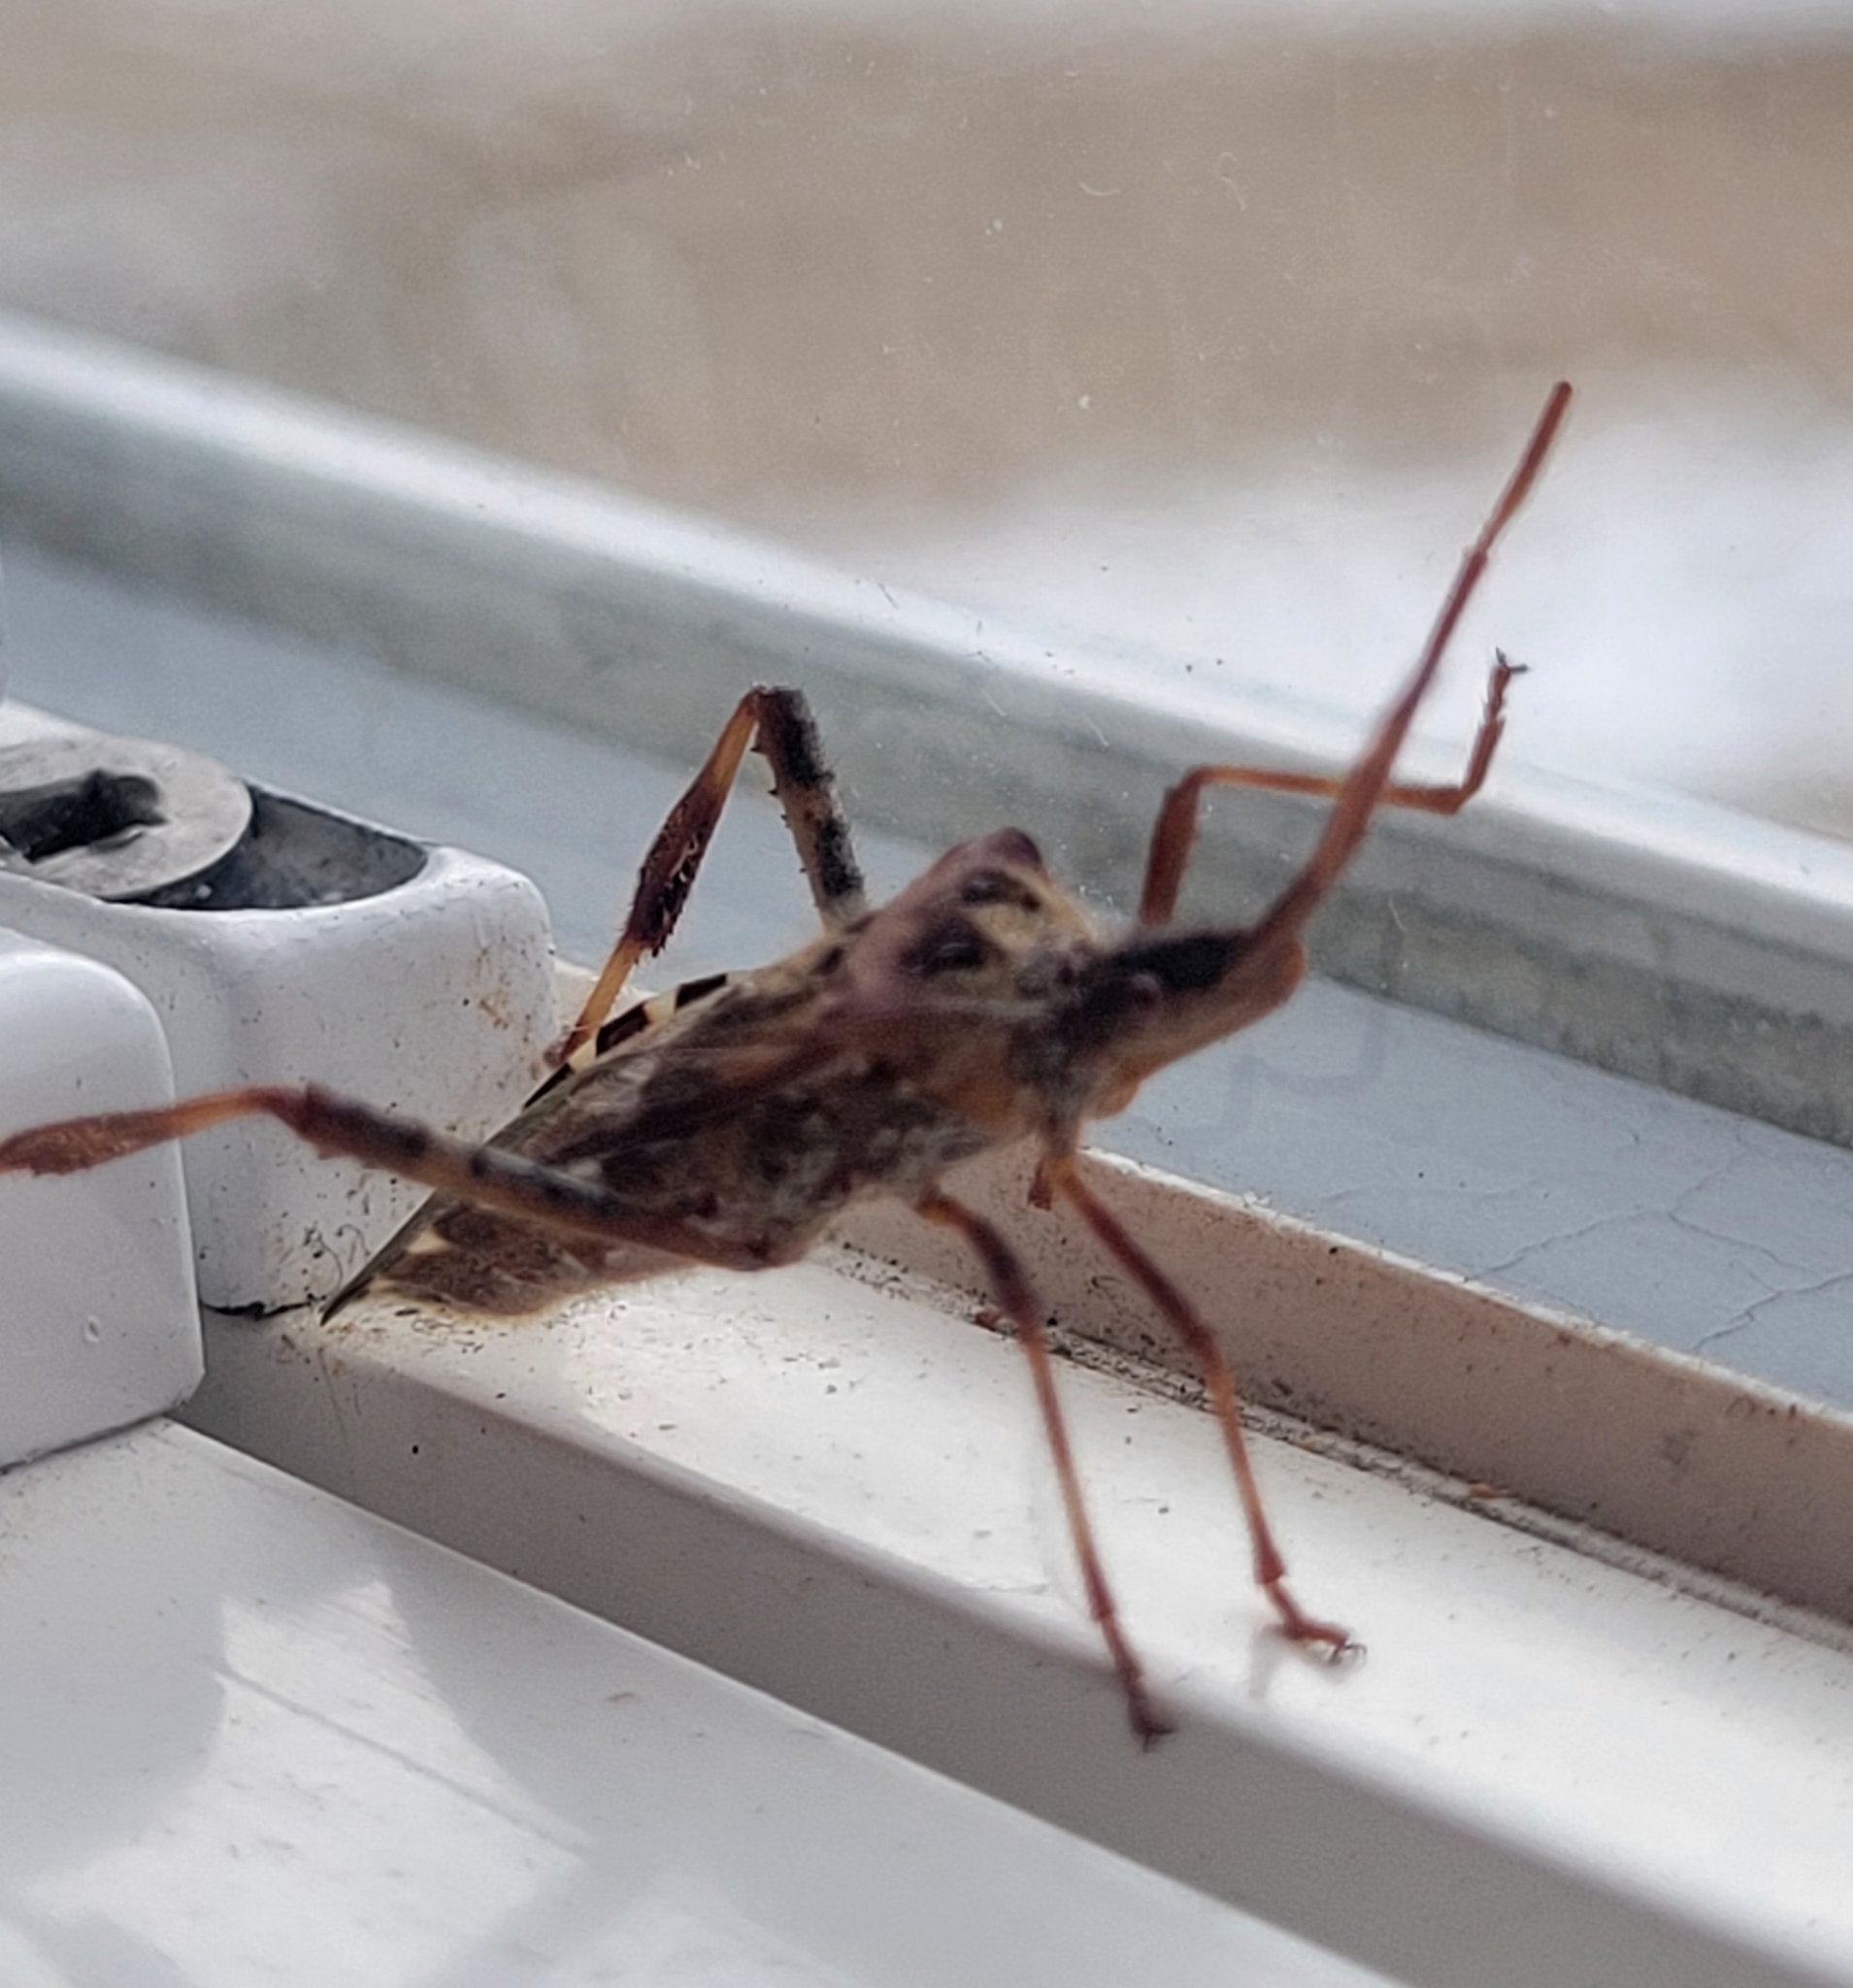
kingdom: Animalia
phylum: Arthropoda
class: Insecta
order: Hemiptera
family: Coreidae
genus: Leptoglossus
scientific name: Leptoglossus occidentalis
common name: Western conifer-seed bug
